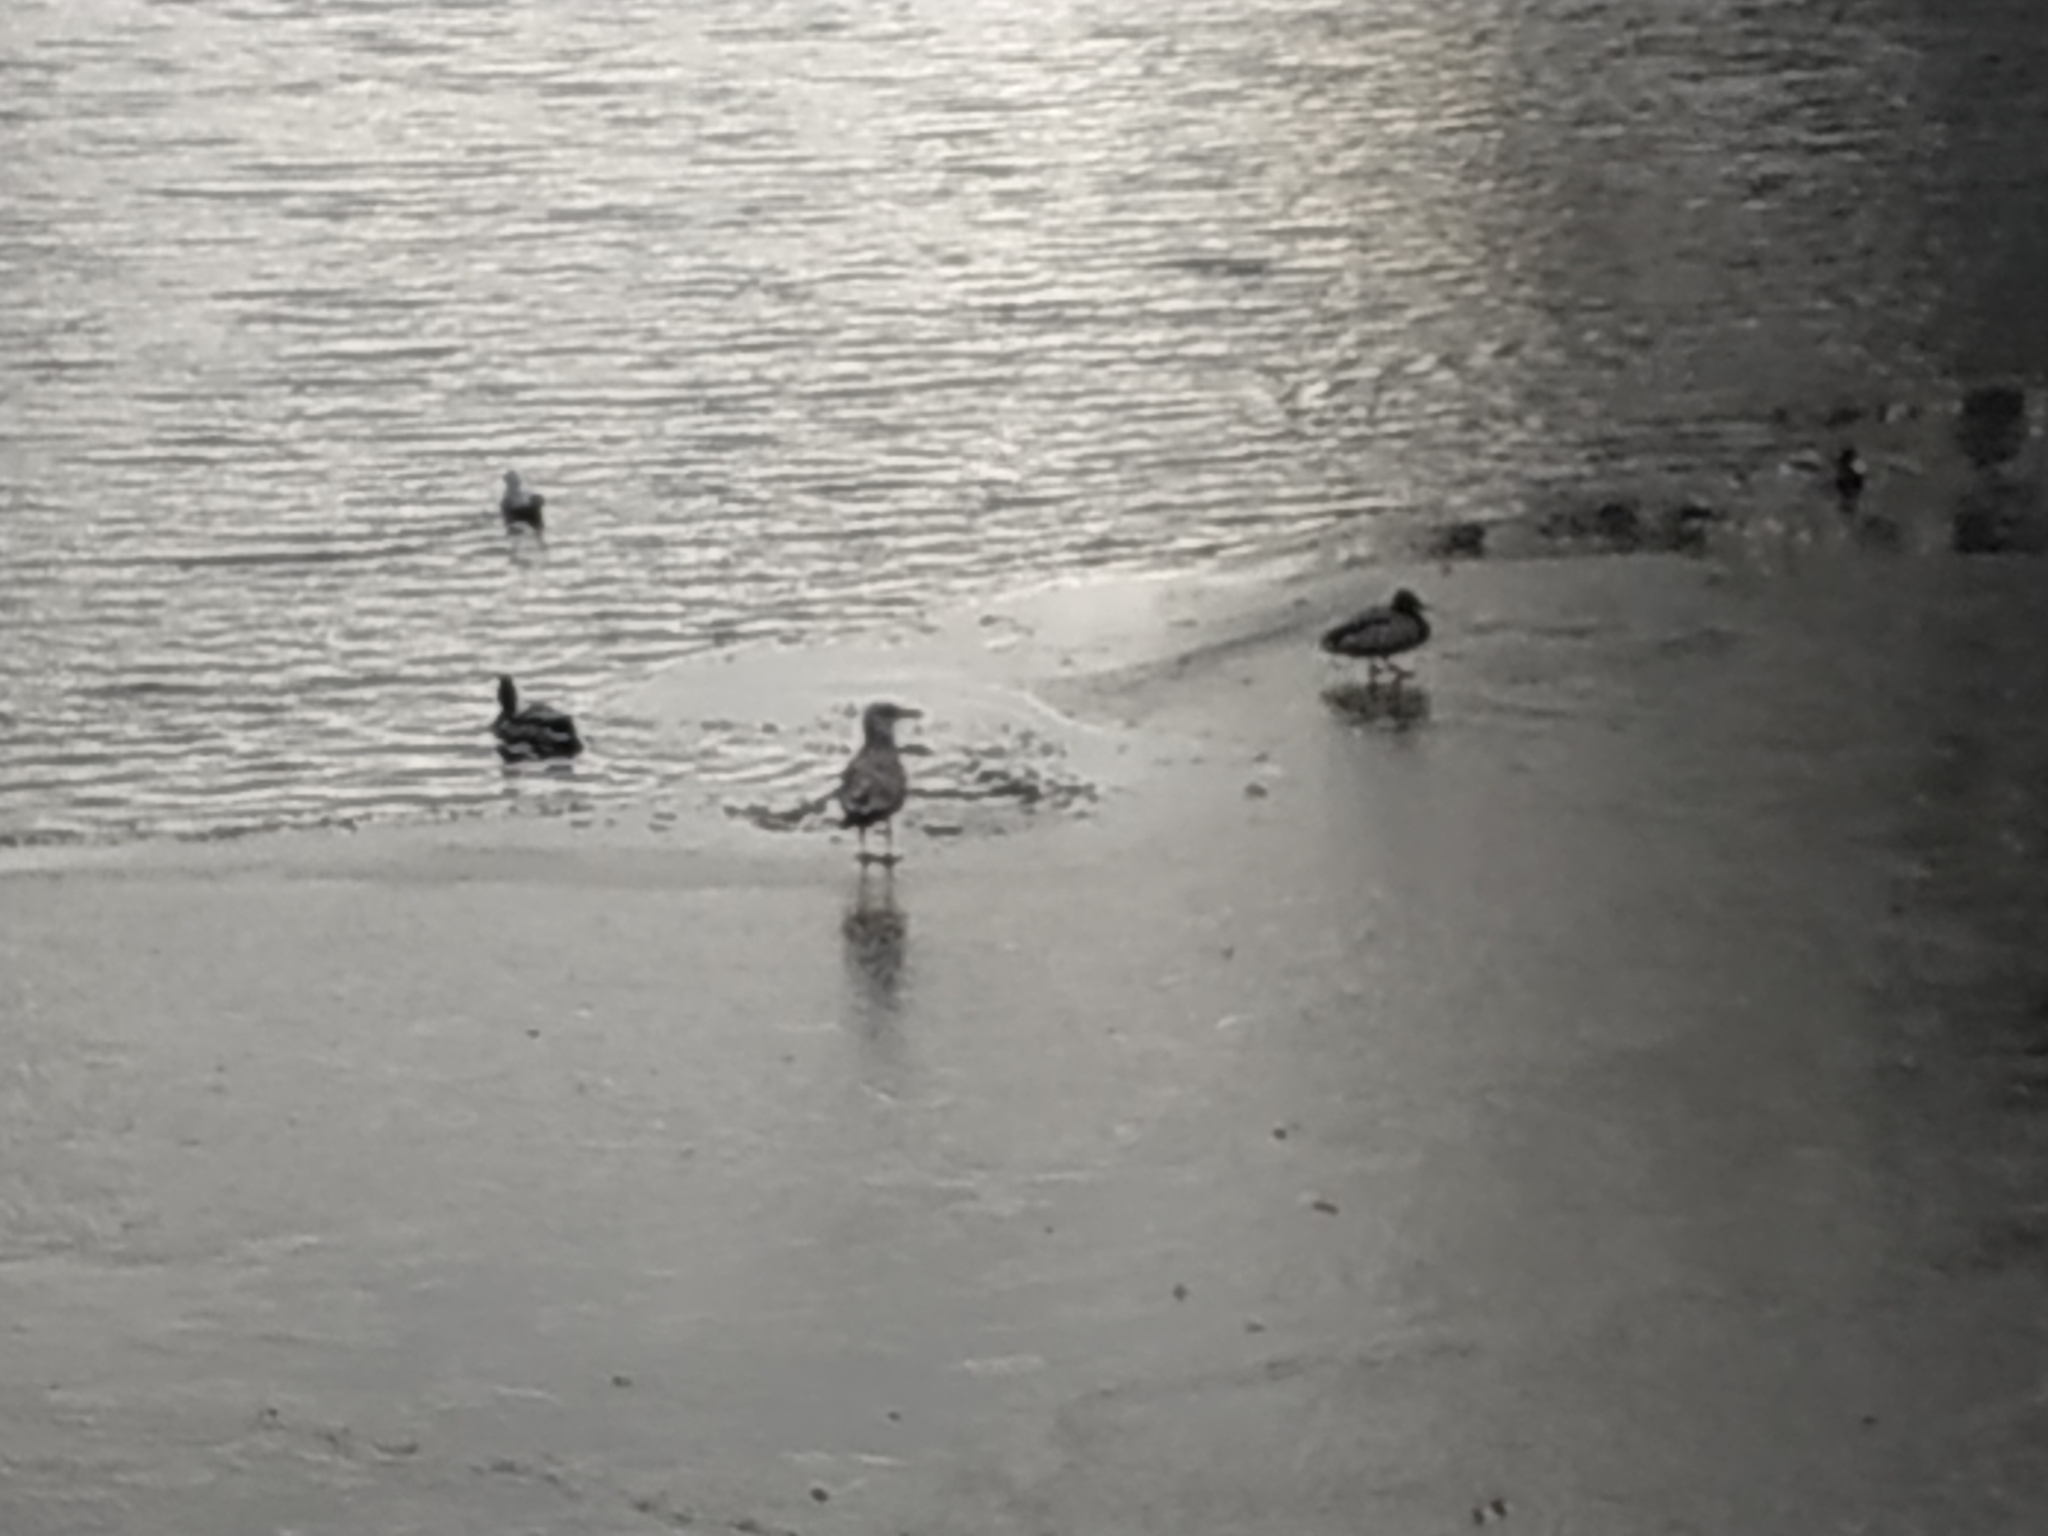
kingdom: Animalia
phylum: Chordata
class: Aves
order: Charadriiformes
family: Laridae
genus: Larus
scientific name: Larus argentatus
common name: Herring gull
